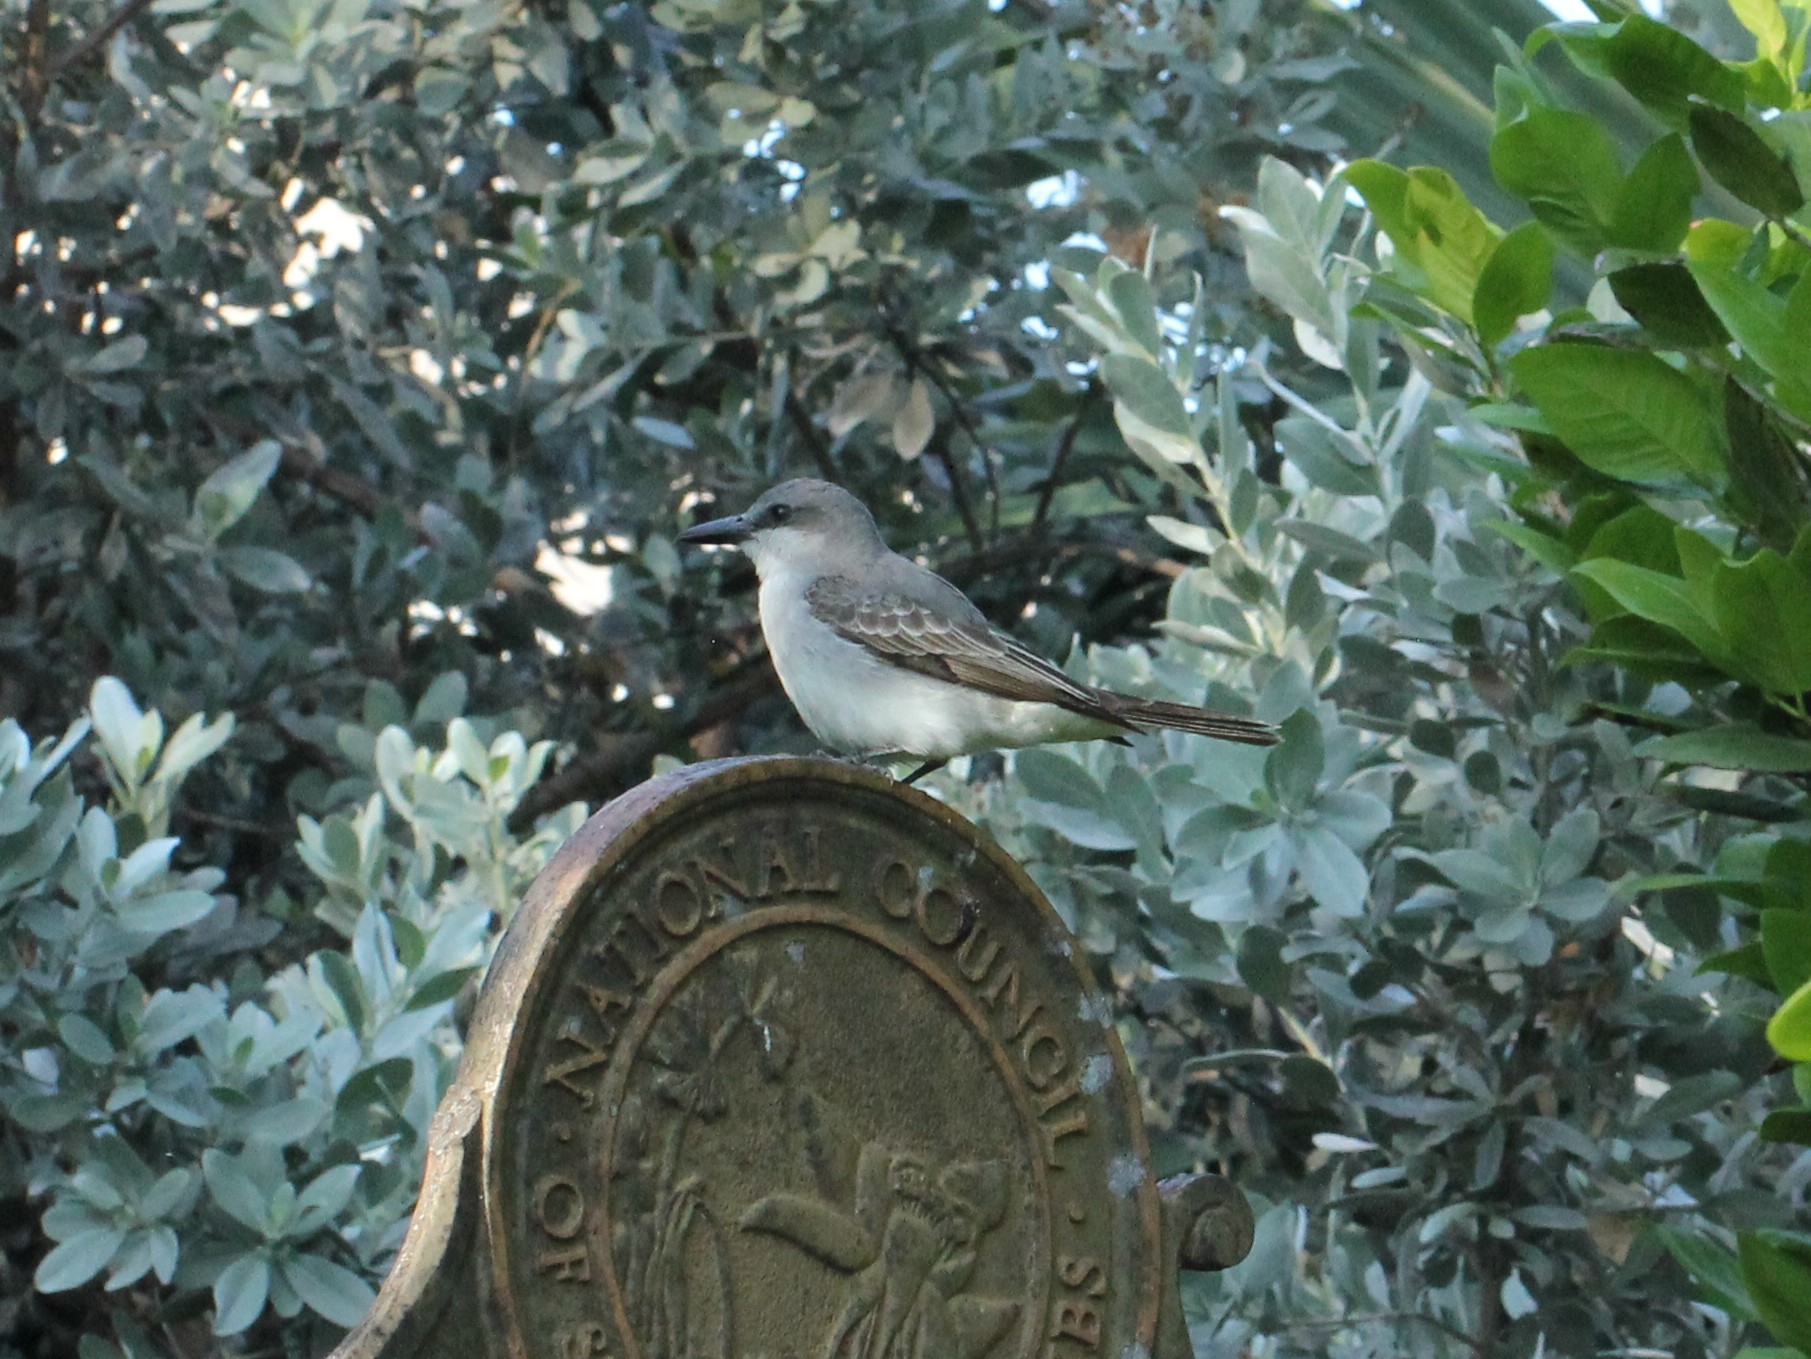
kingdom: Animalia
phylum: Chordata
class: Aves
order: Passeriformes
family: Tyrannidae
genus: Tyrannus
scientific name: Tyrannus dominicensis
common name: Gray kingbird
